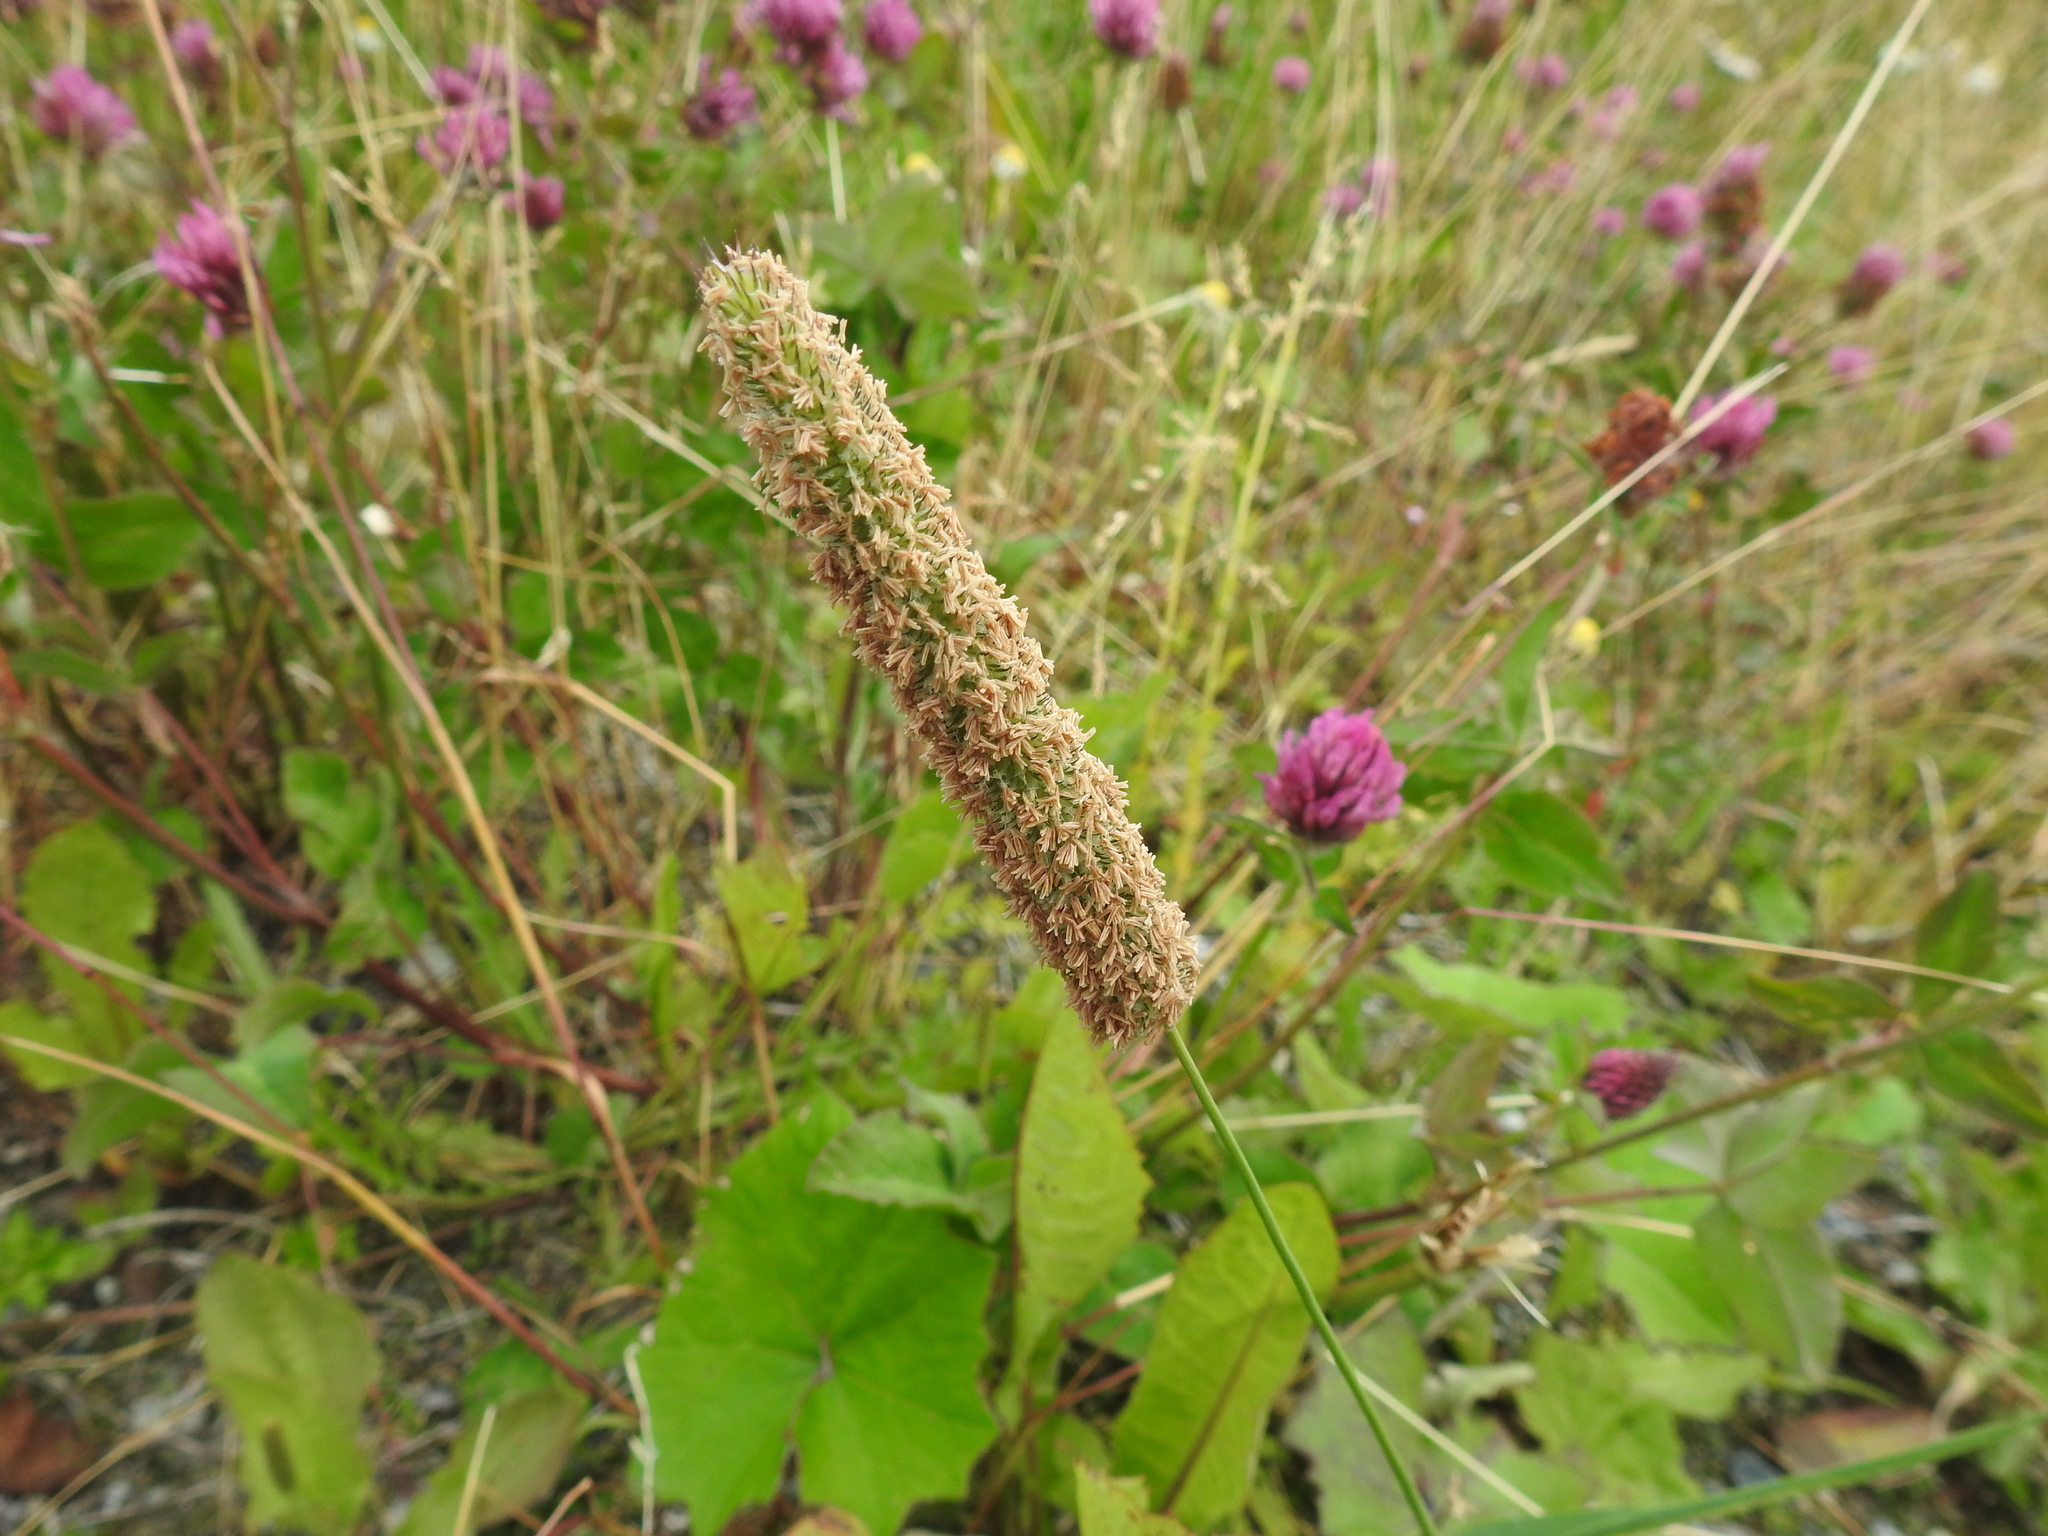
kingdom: Plantae
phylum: Tracheophyta
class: Liliopsida
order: Poales
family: Poaceae
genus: Phleum
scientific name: Phleum pratense
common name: Timothy grass
